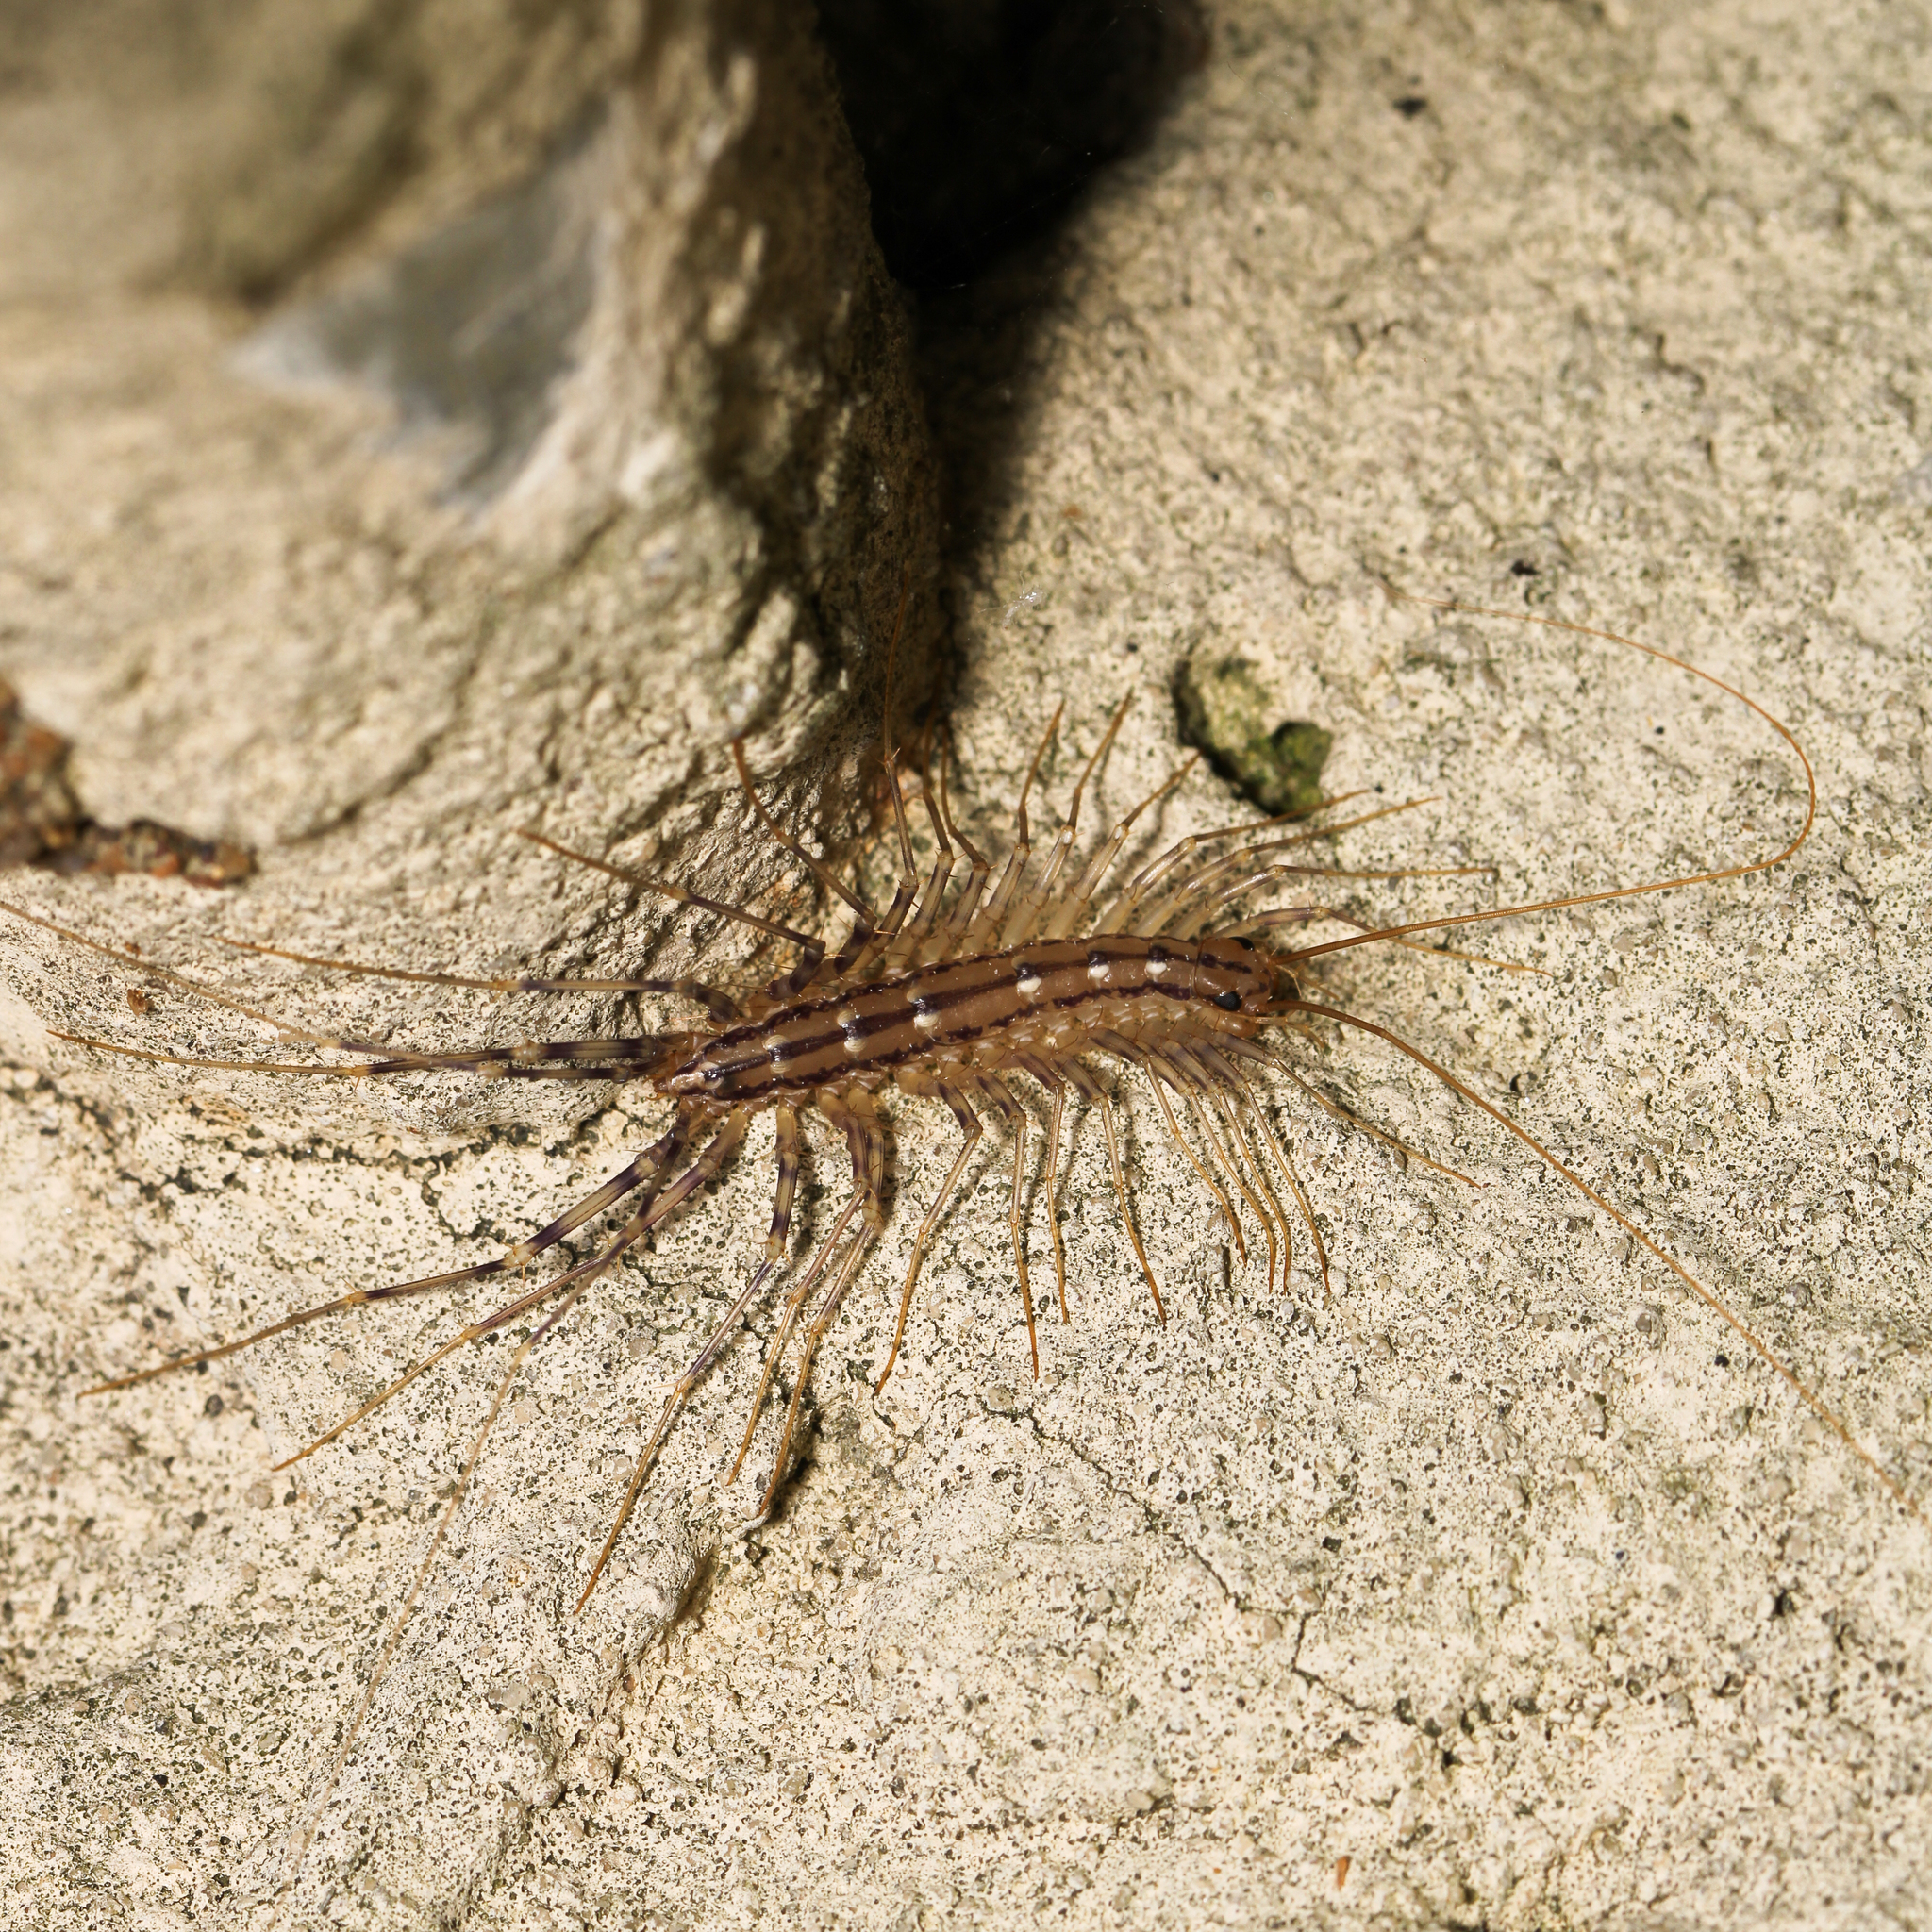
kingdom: Animalia
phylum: Arthropoda
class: Chilopoda
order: Scutigeromorpha
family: Scutigeridae
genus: Scutigera
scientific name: Scutigera coleoptrata
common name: House centipede
